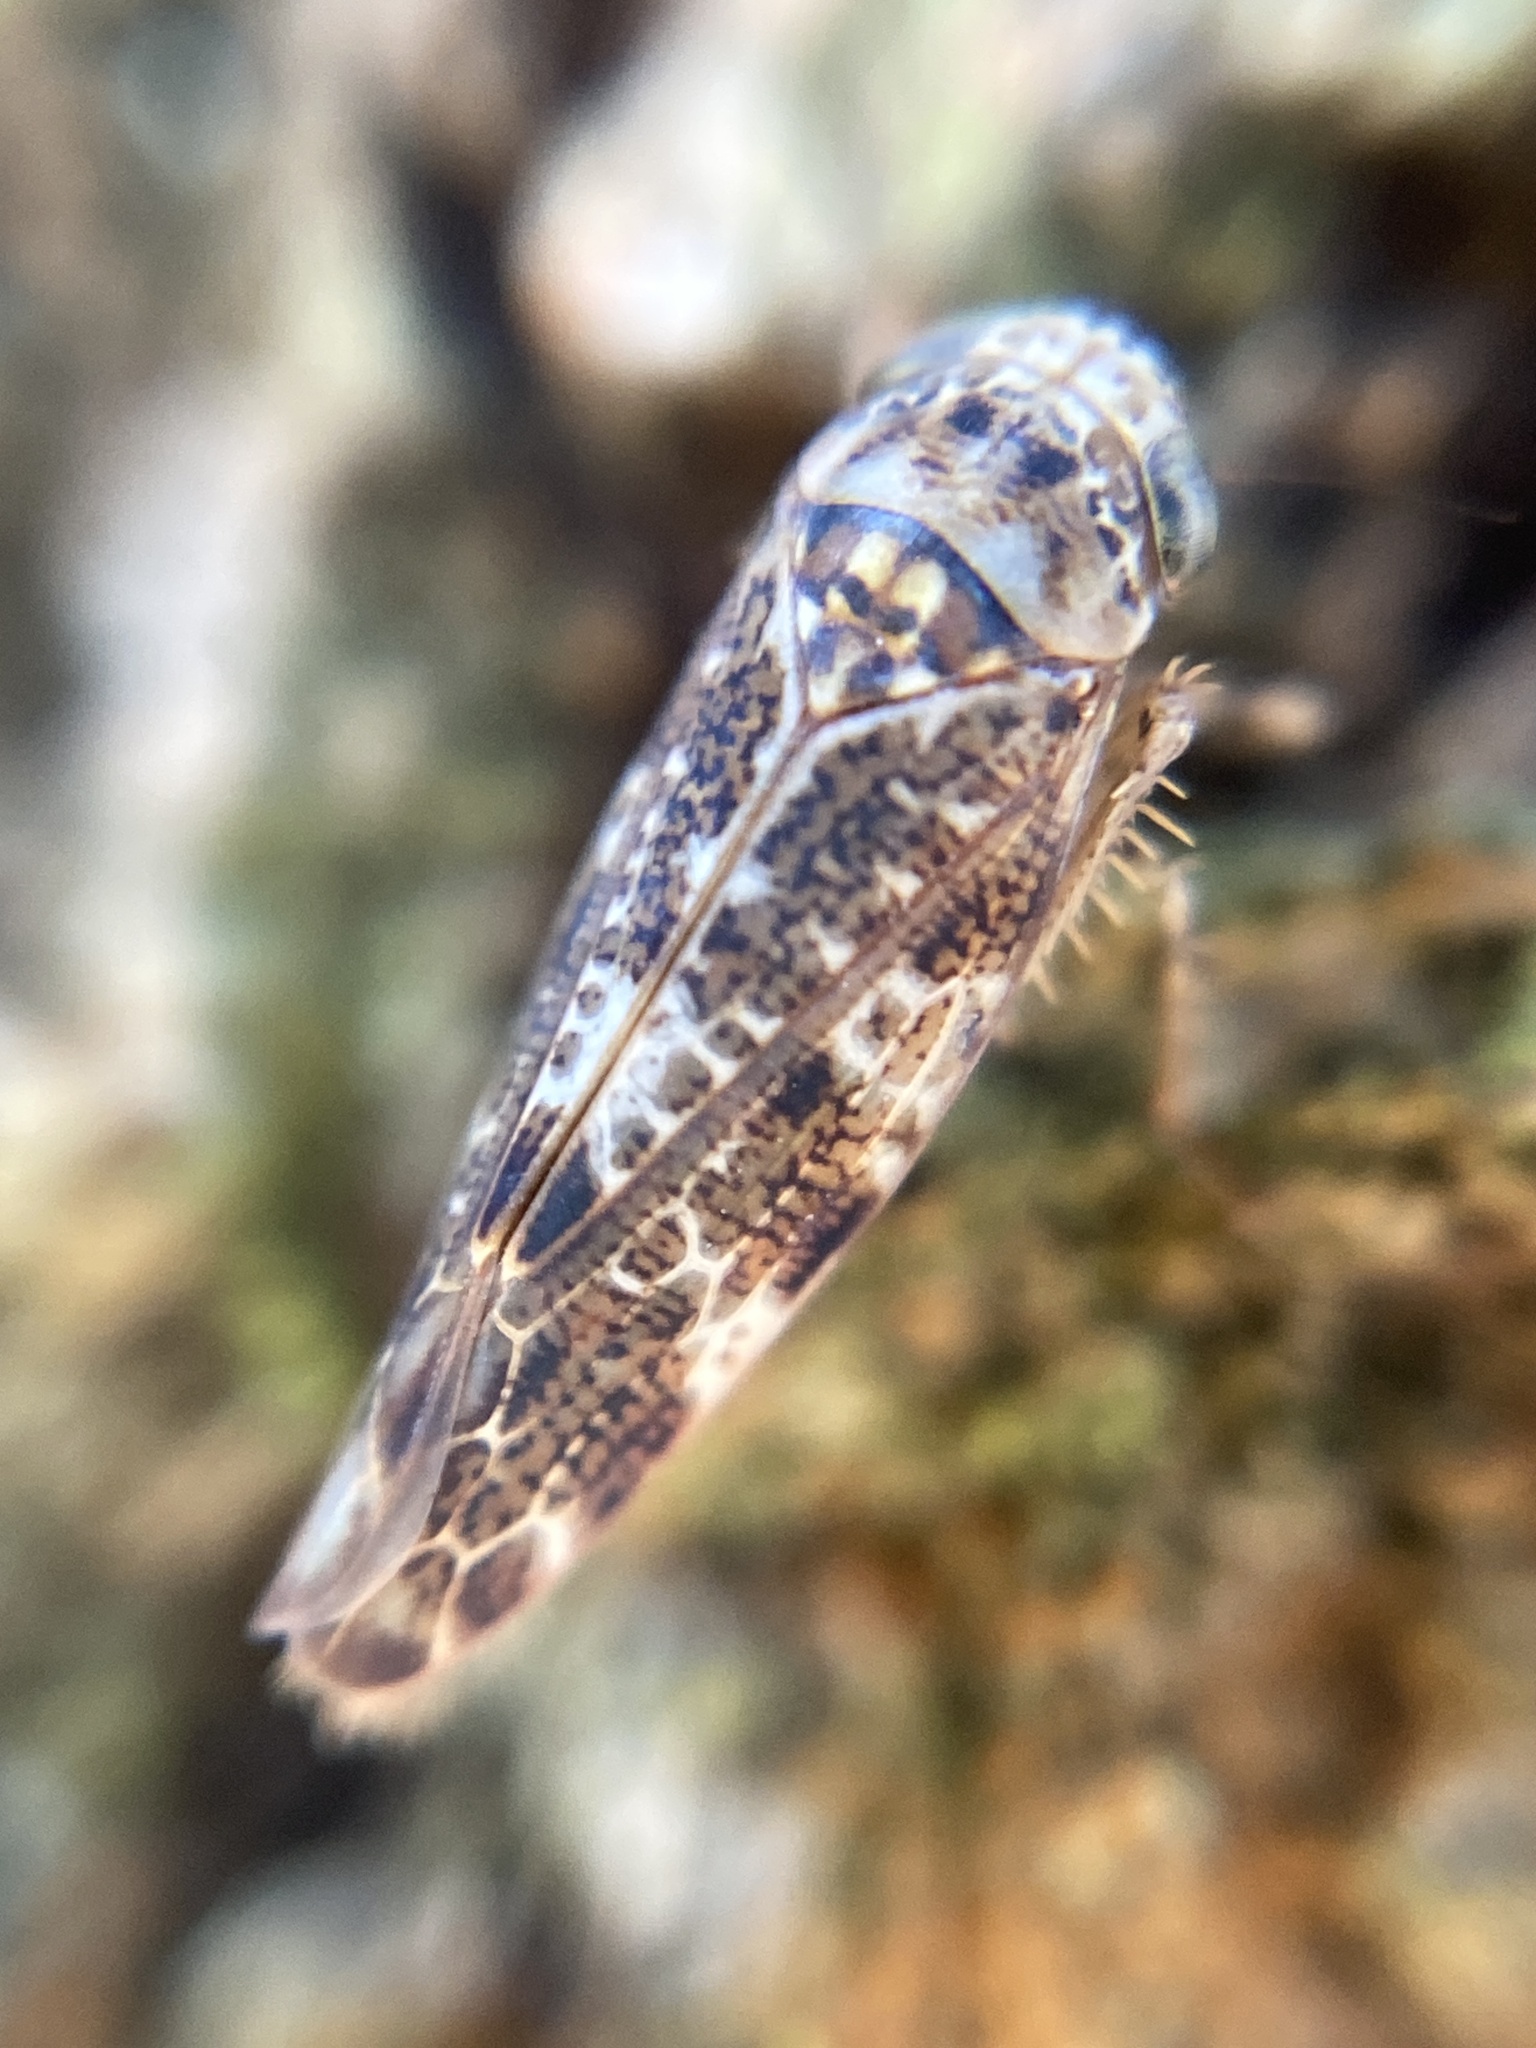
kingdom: Animalia
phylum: Arthropoda
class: Insecta
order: Hemiptera
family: Cicadellidae
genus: Allygus
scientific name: Allygus mixtus
